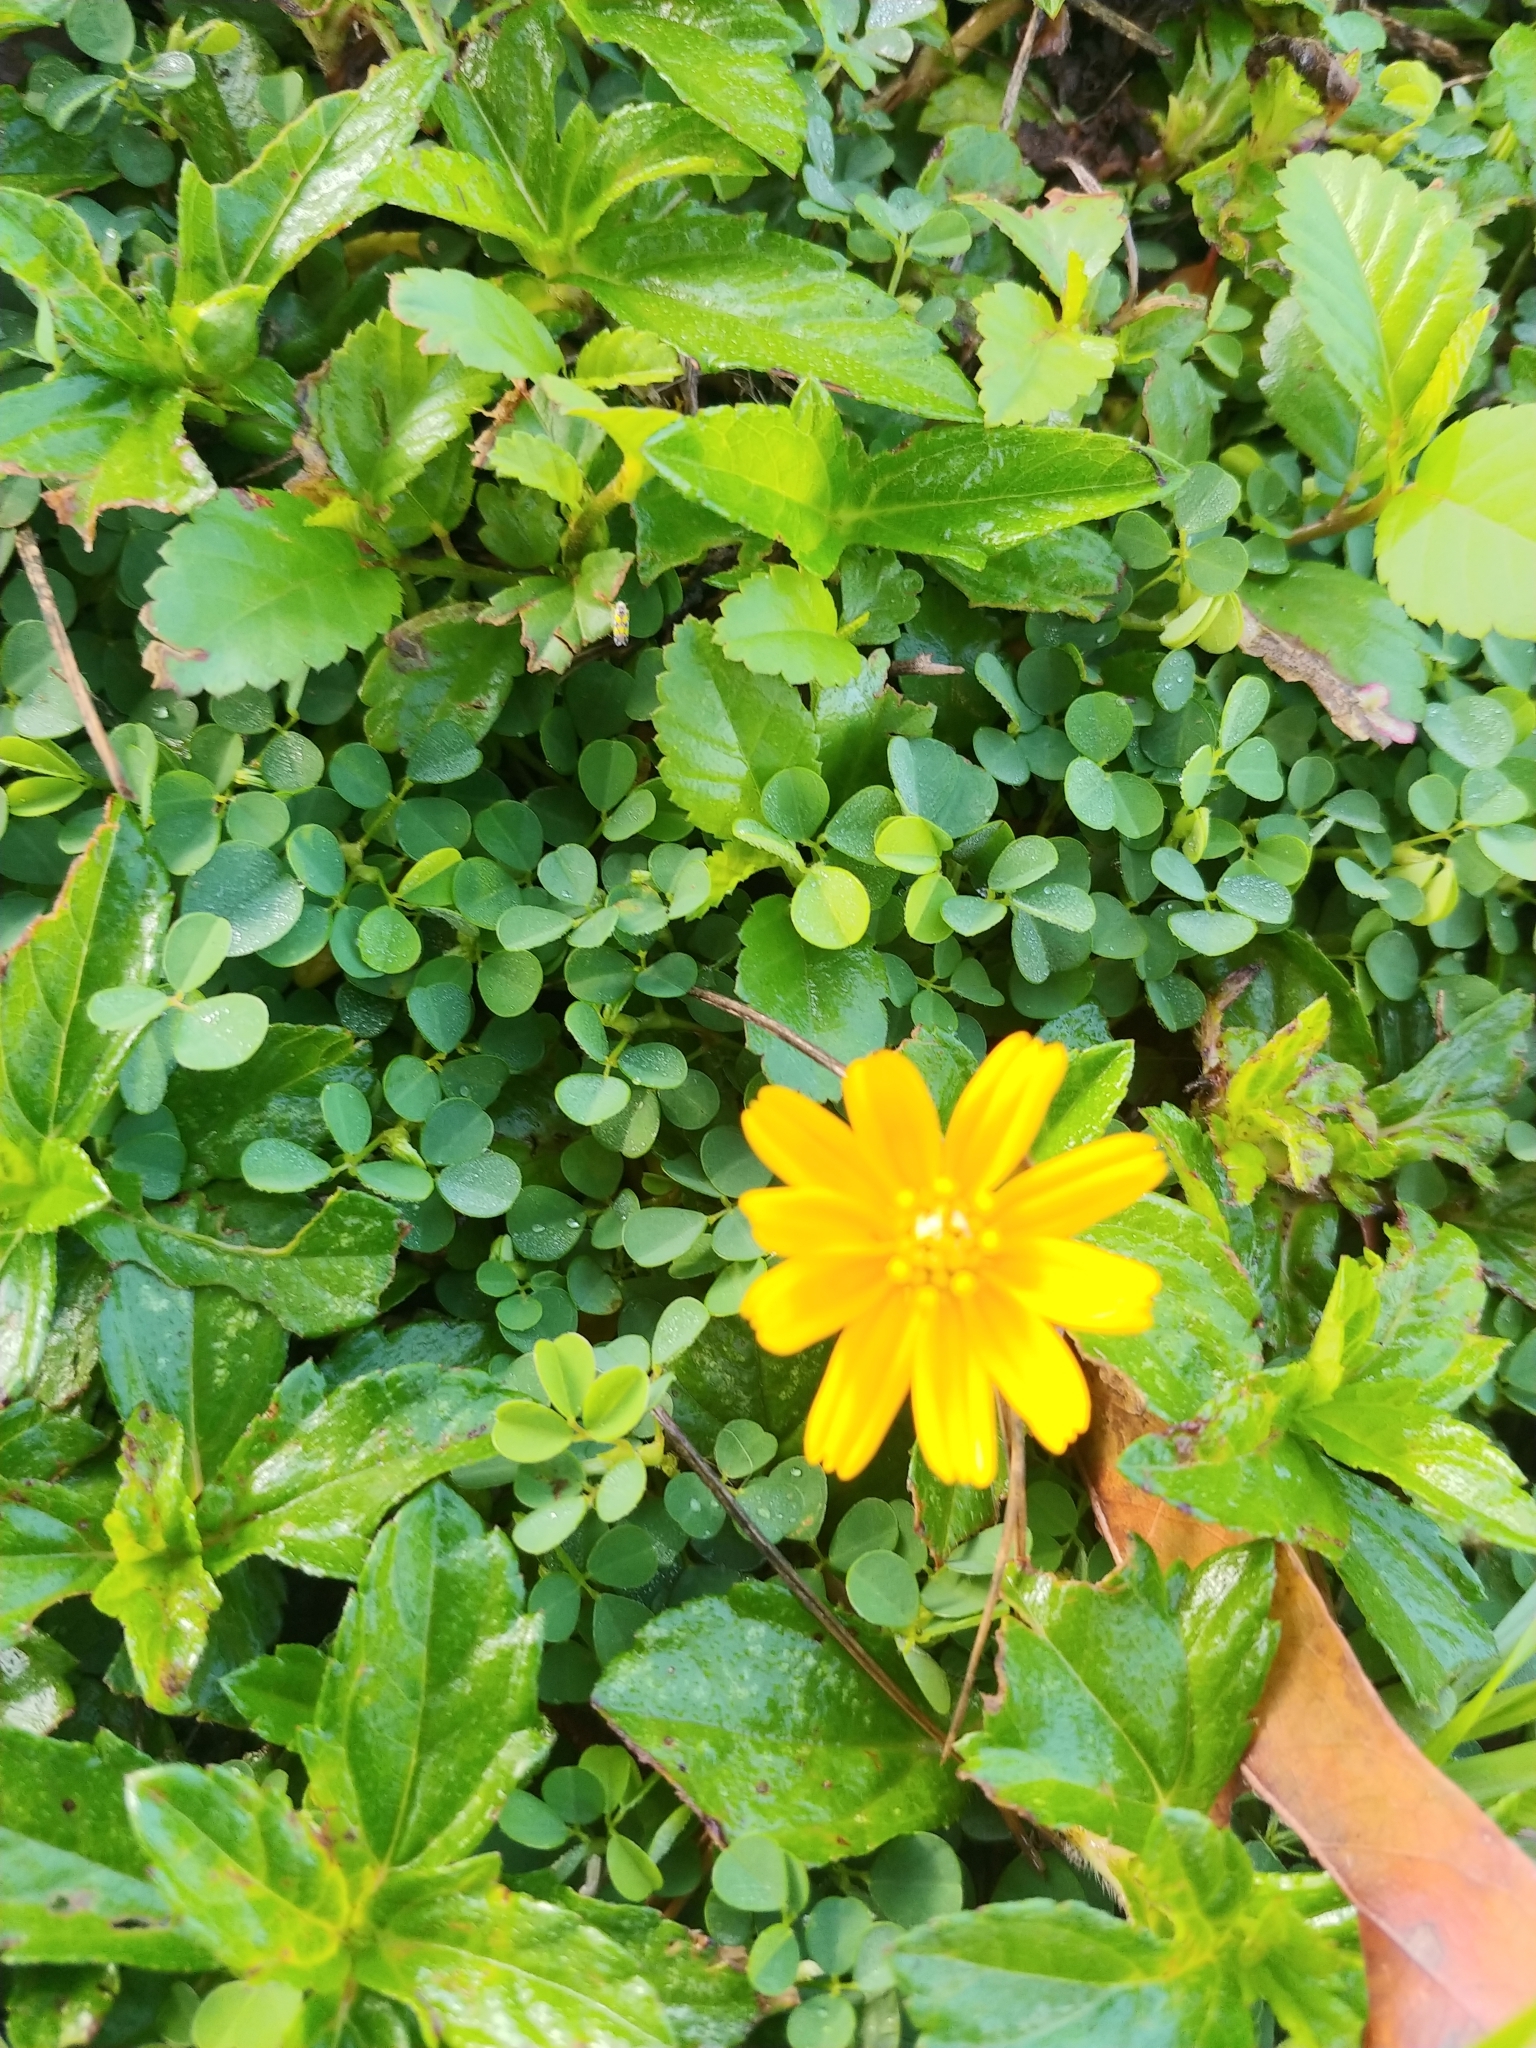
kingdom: Plantae
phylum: Tracheophyta
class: Magnoliopsida
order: Asterales
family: Asteraceae
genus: Sphagneticola
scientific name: Sphagneticola trilobata
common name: Bay biscayne creeping-oxeye
